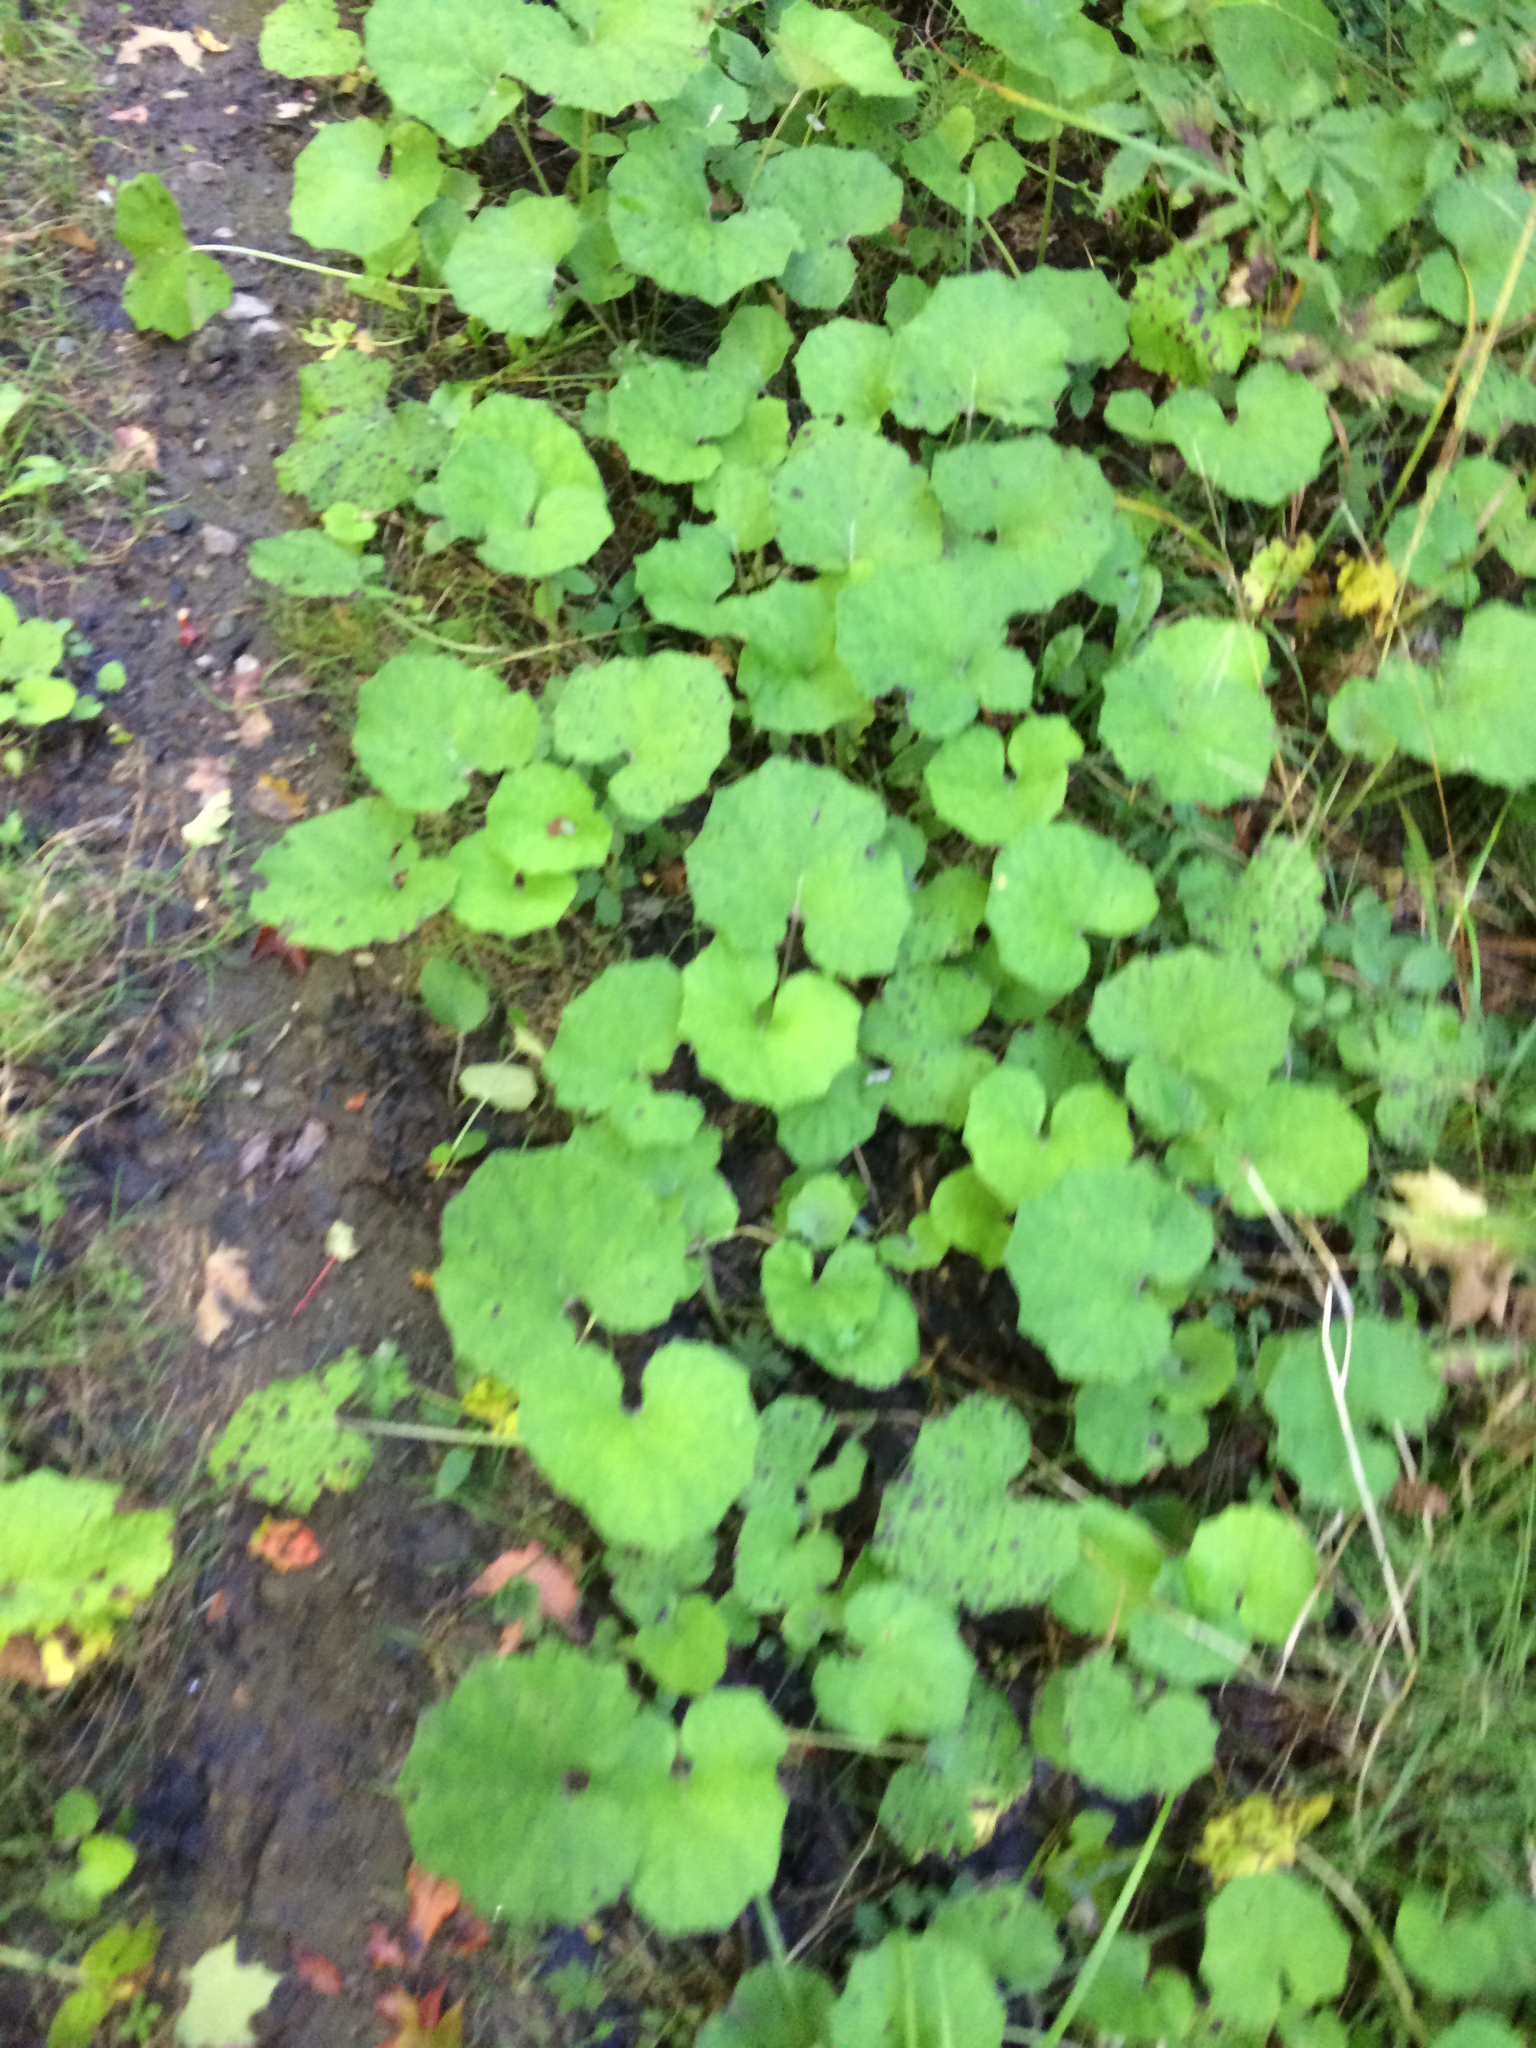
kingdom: Plantae
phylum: Tracheophyta
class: Magnoliopsida
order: Asterales
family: Asteraceae
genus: Tussilago
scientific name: Tussilago farfara
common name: Coltsfoot
